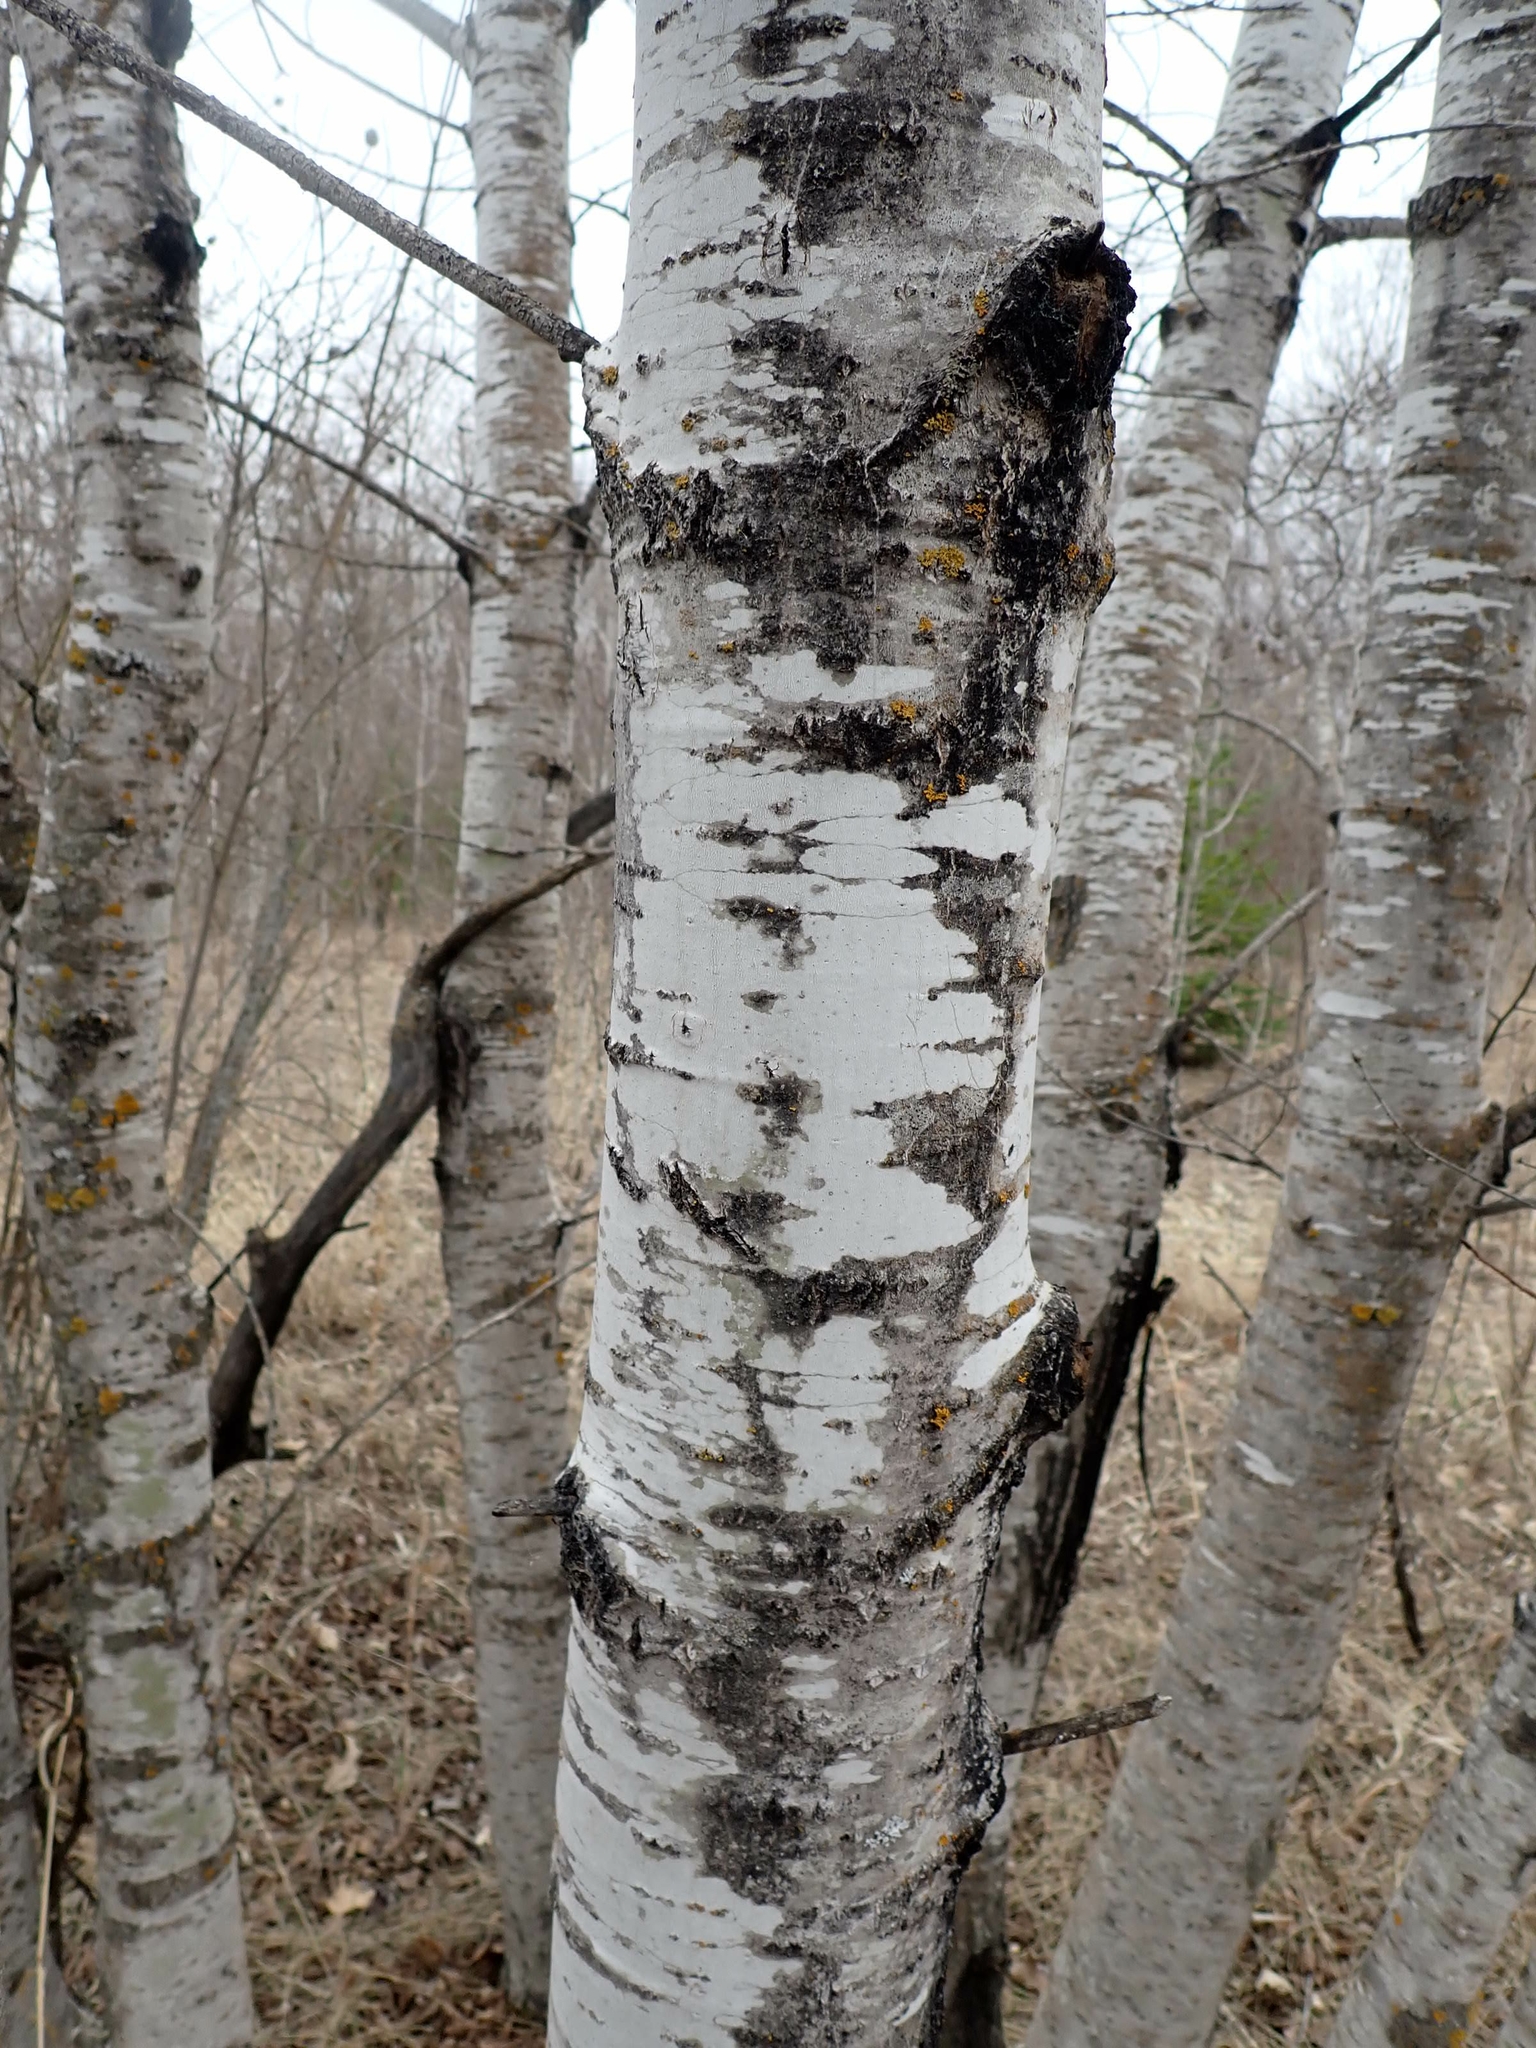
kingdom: Plantae
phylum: Tracheophyta
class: Magnoliopsida
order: Malpighiales
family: Salicaceae
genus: Populus
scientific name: Populus tremuloides
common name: Quaking aspen
